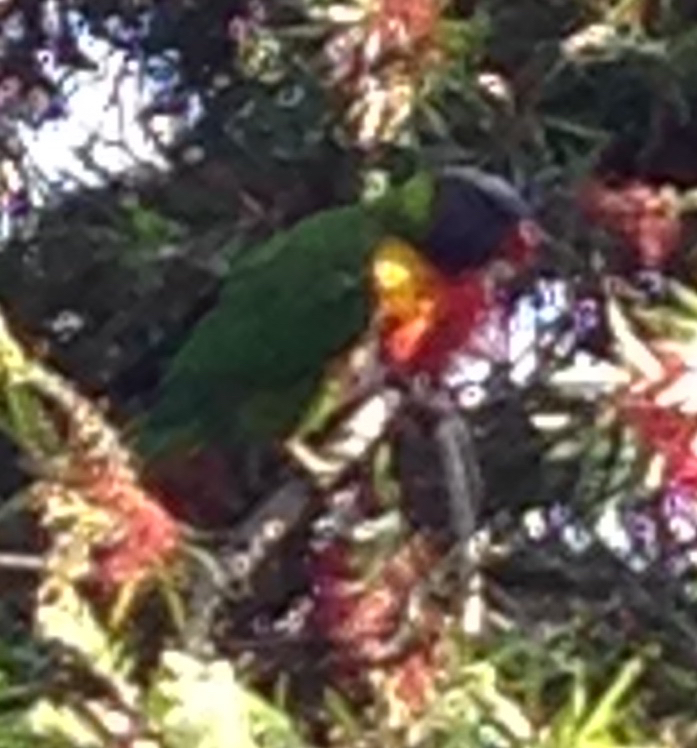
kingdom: Animalia
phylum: Chordata
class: Aves
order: Psittaciformes
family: Psittacidae
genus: Trichoglossus
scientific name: Trichoglossus haematodus
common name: Coconut lorikeet
